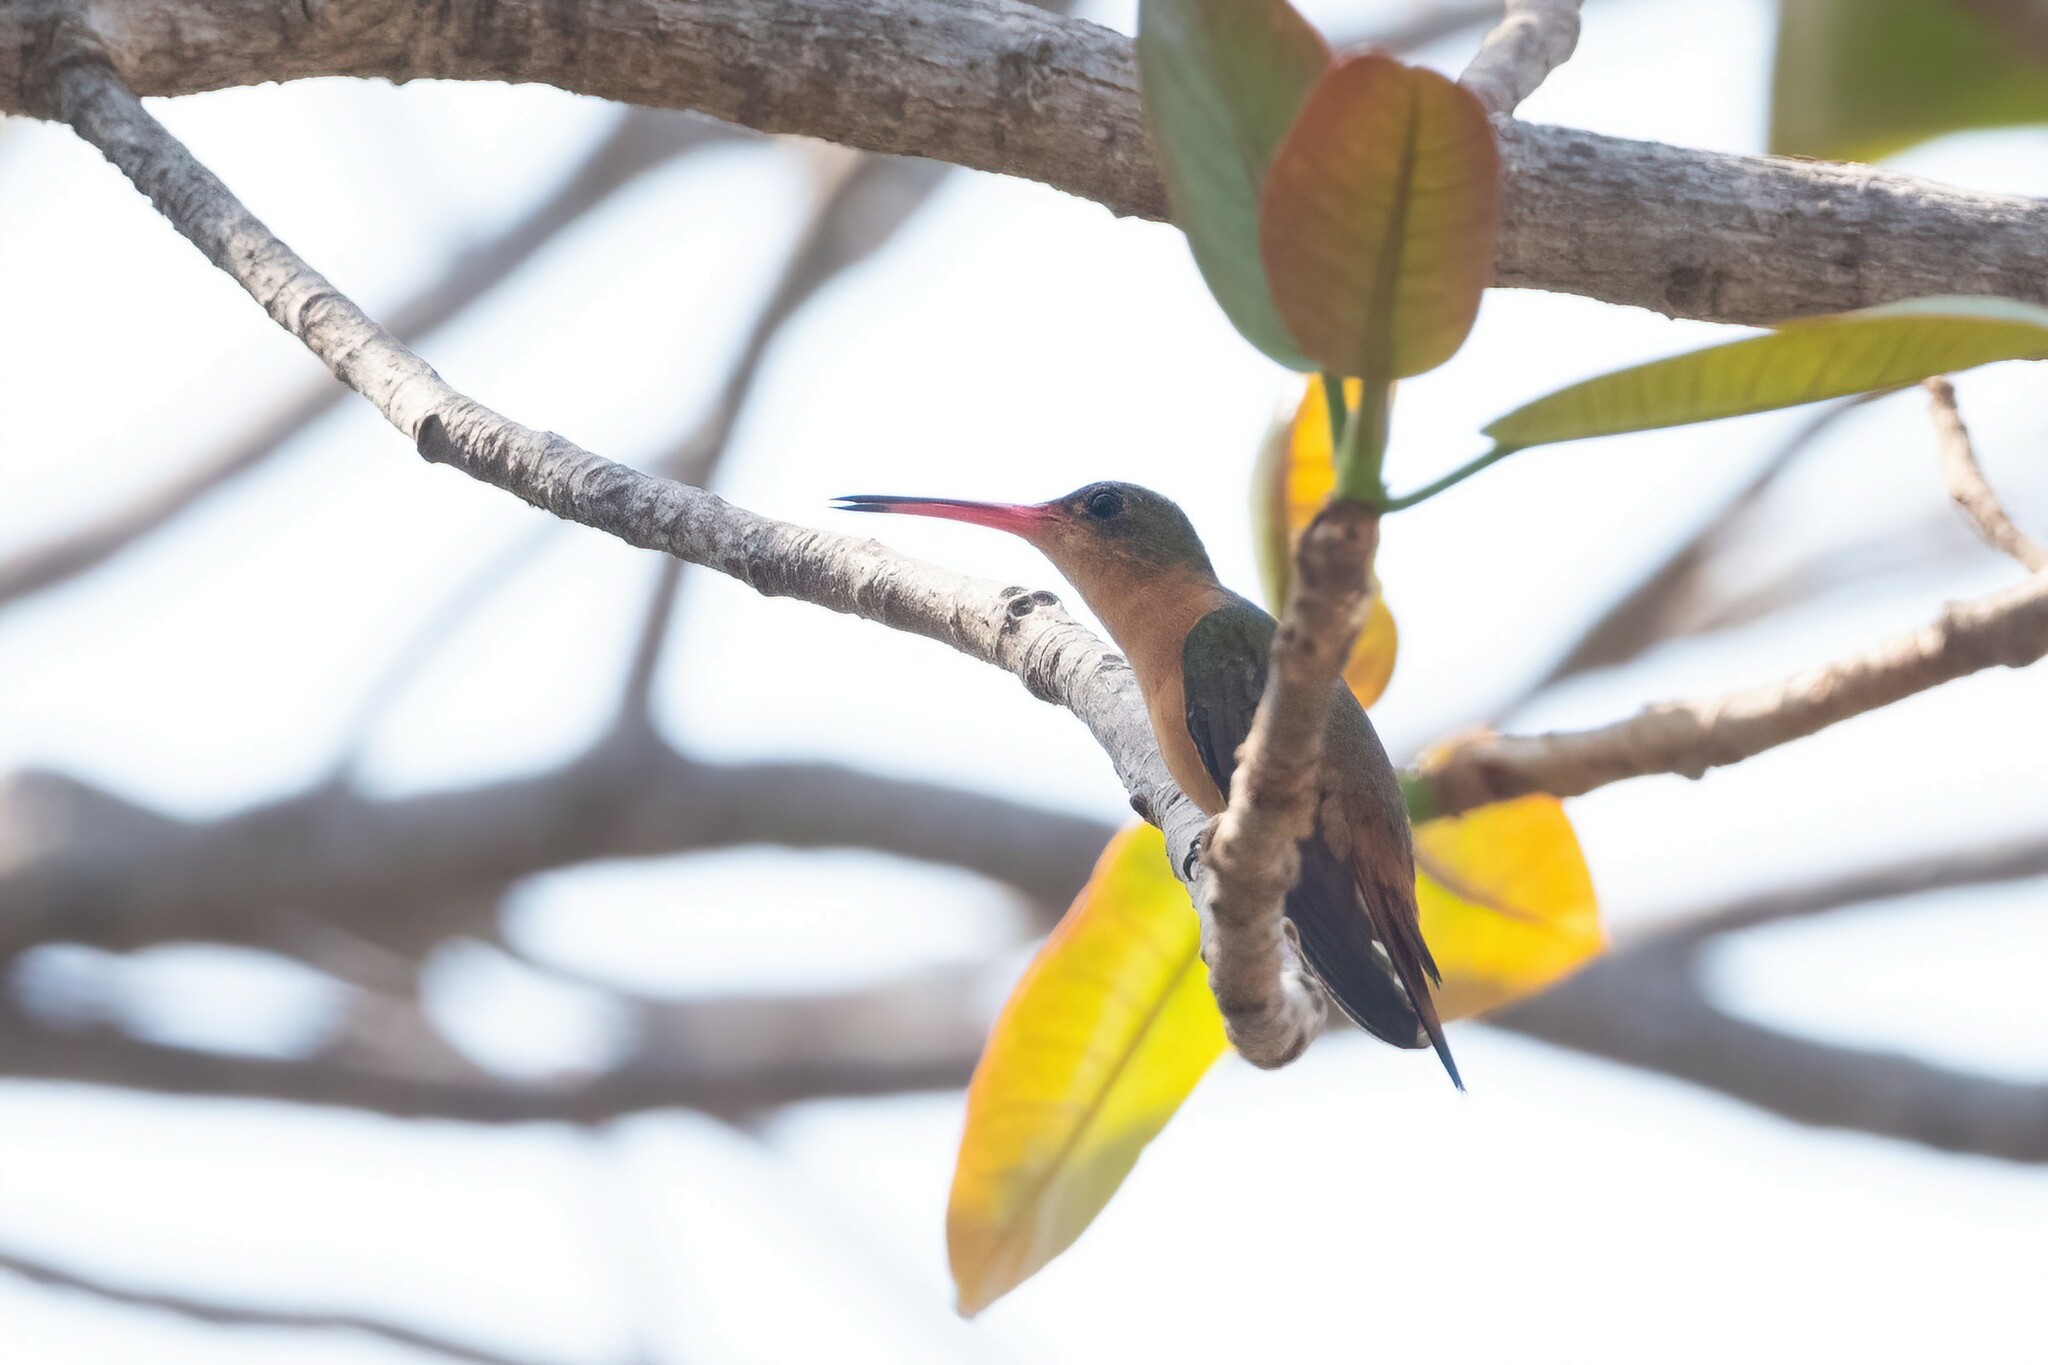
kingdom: Animalia
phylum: Chordata
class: Aves
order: Apodiformes
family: Trochilidae
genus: Amazilia
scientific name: Amazilia rutila
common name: Cinnamon hummingbird
